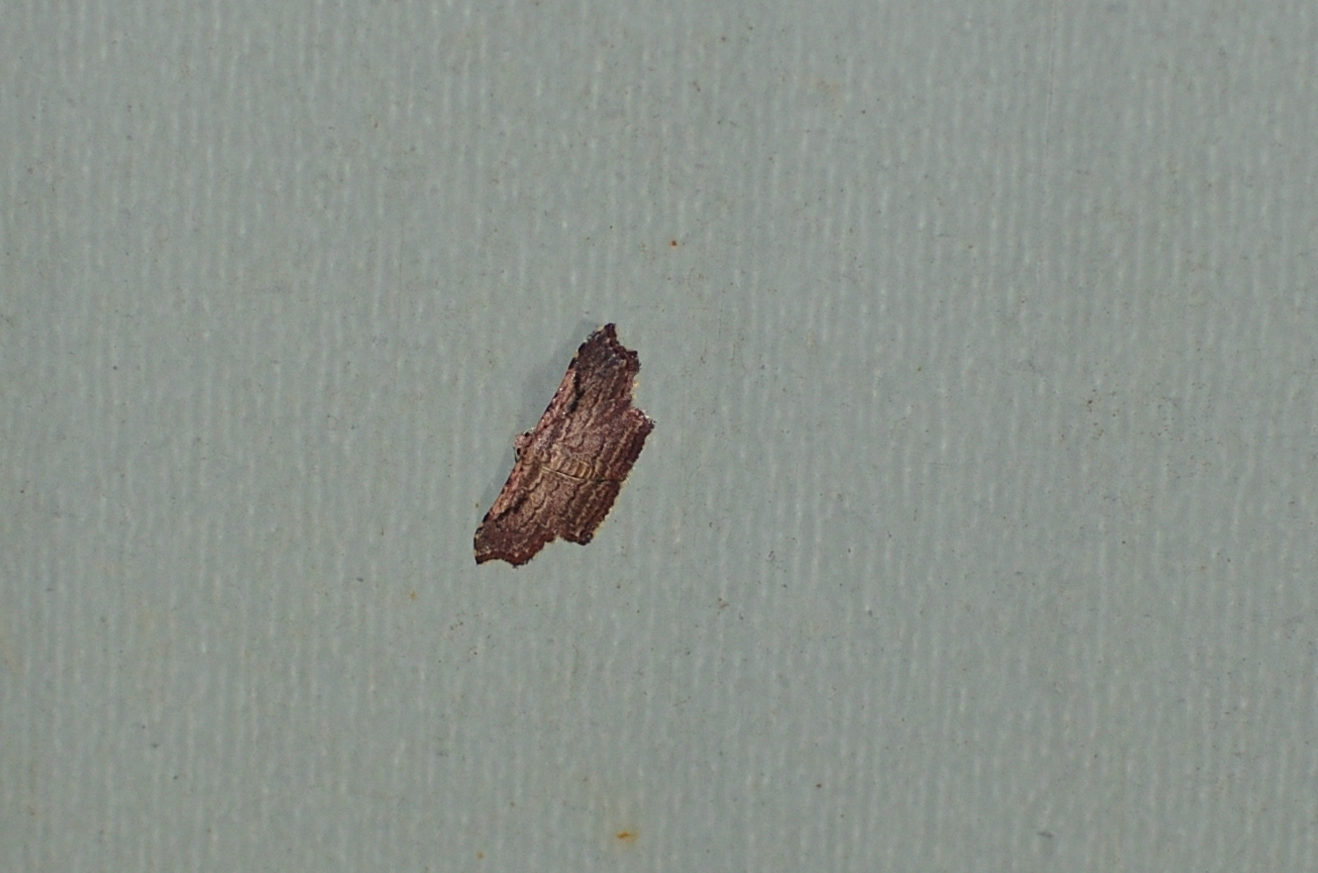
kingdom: Animalia
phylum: Arthropoda
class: Insecta
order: Lepidoptera
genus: Ectoblemma
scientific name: Ectoblemma
